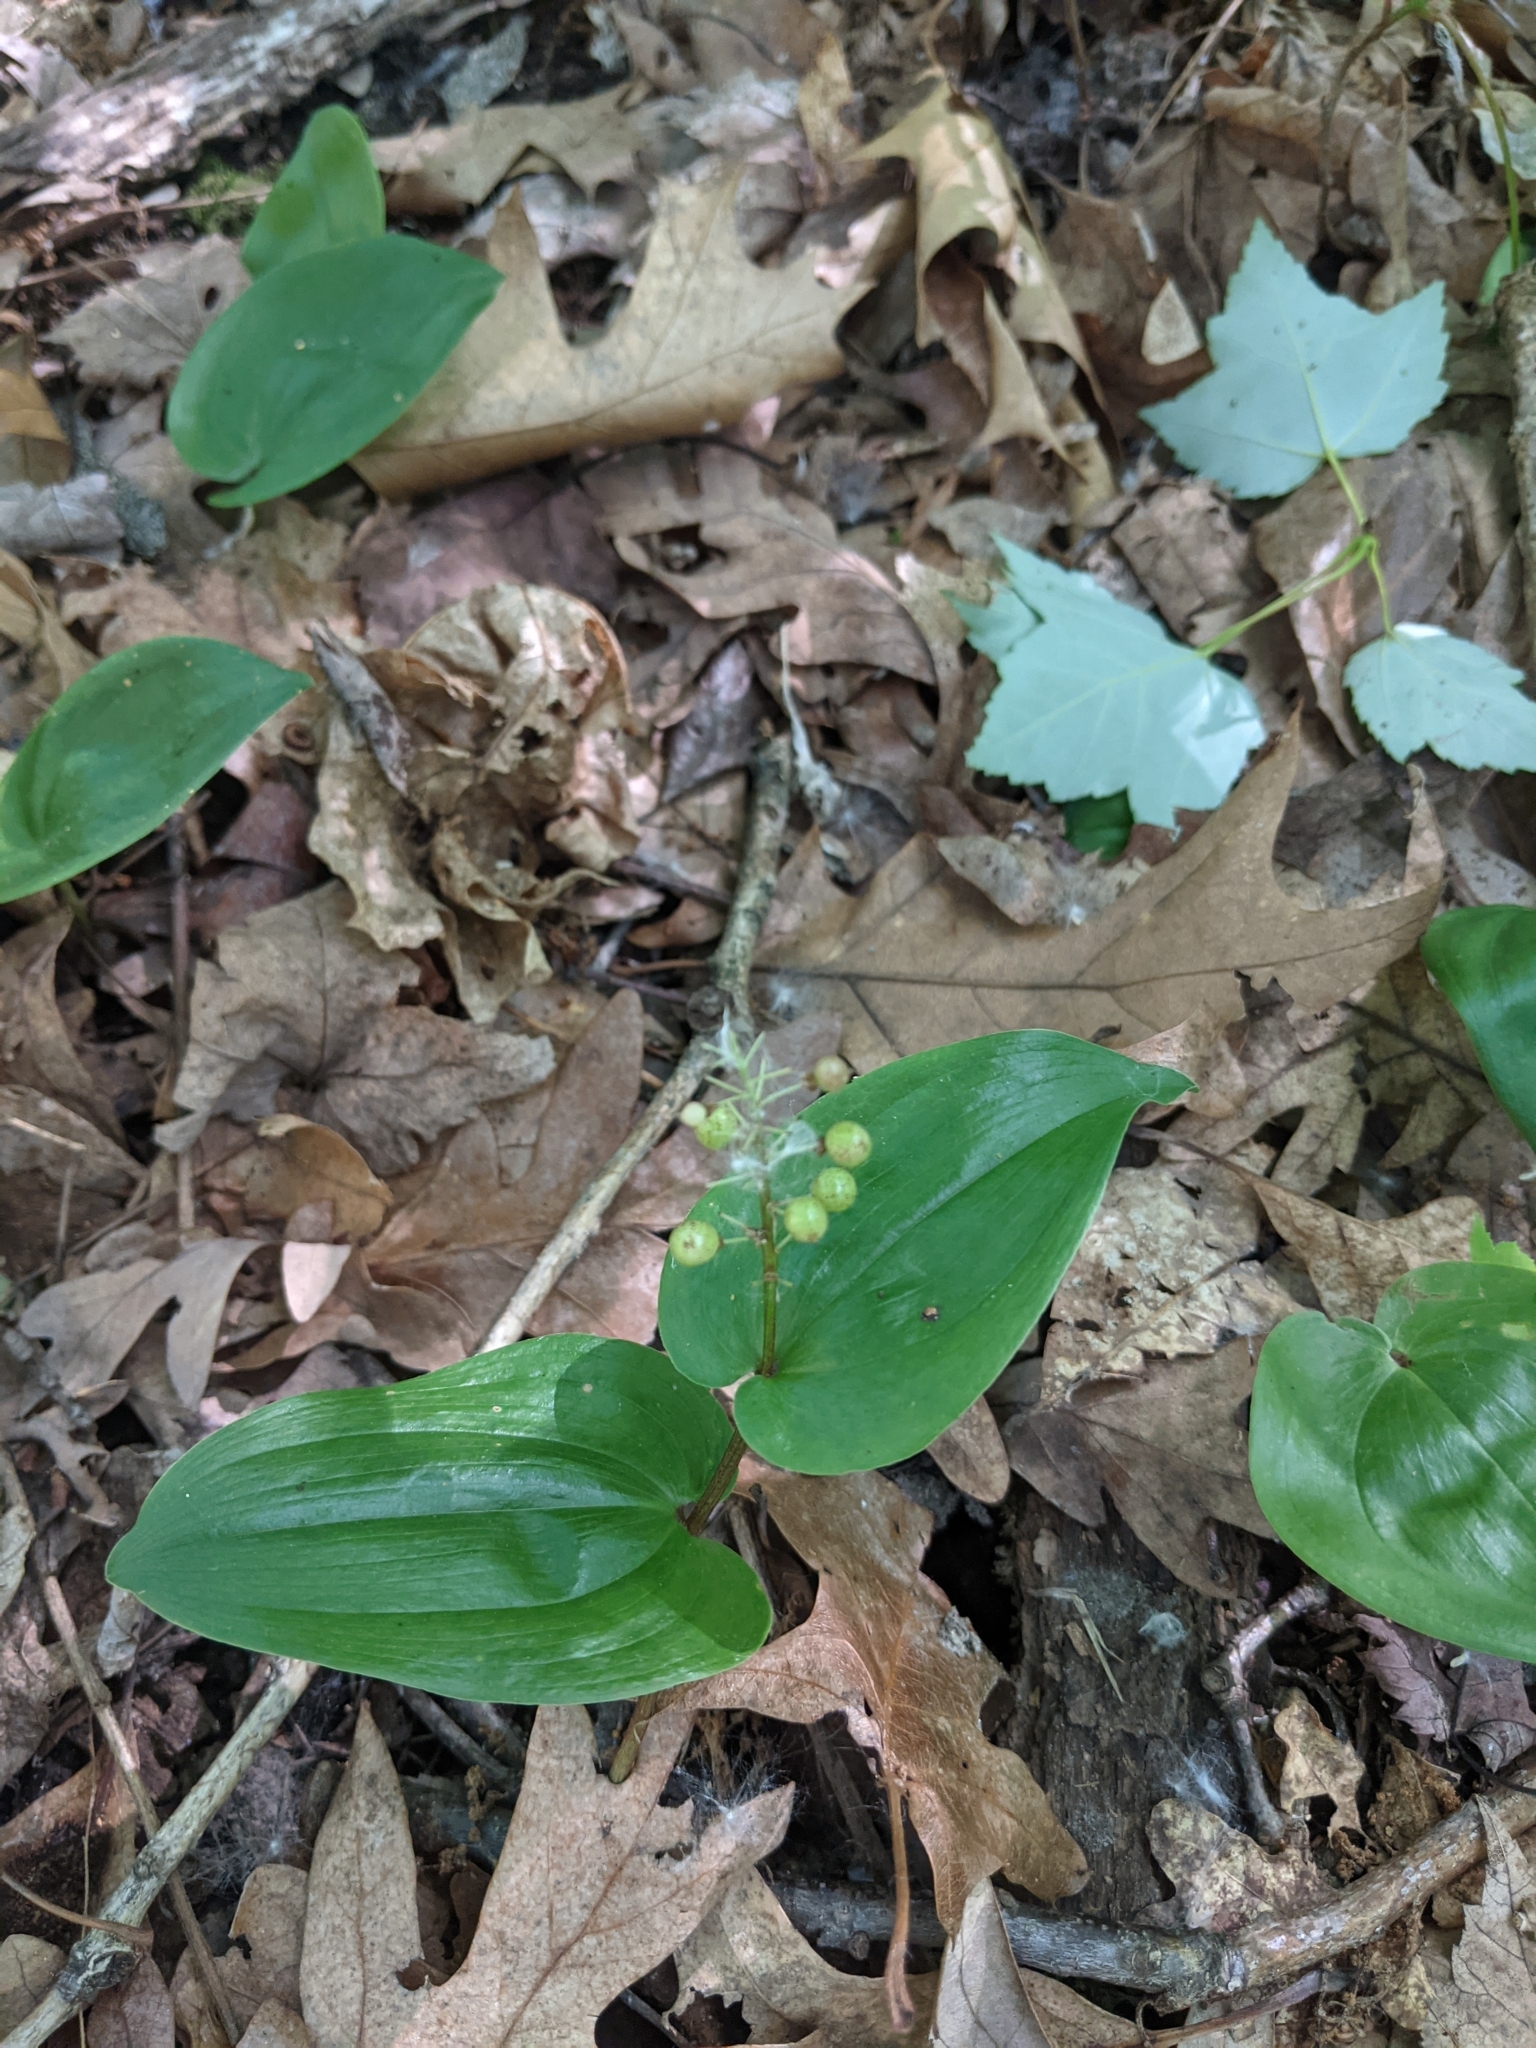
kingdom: Plantae
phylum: Tracheophyta
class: Liliopsida
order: Asparagales
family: Asparagaceae
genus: Maianthemum
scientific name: Maianthemum canadense
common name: False lily-of-the-valley
